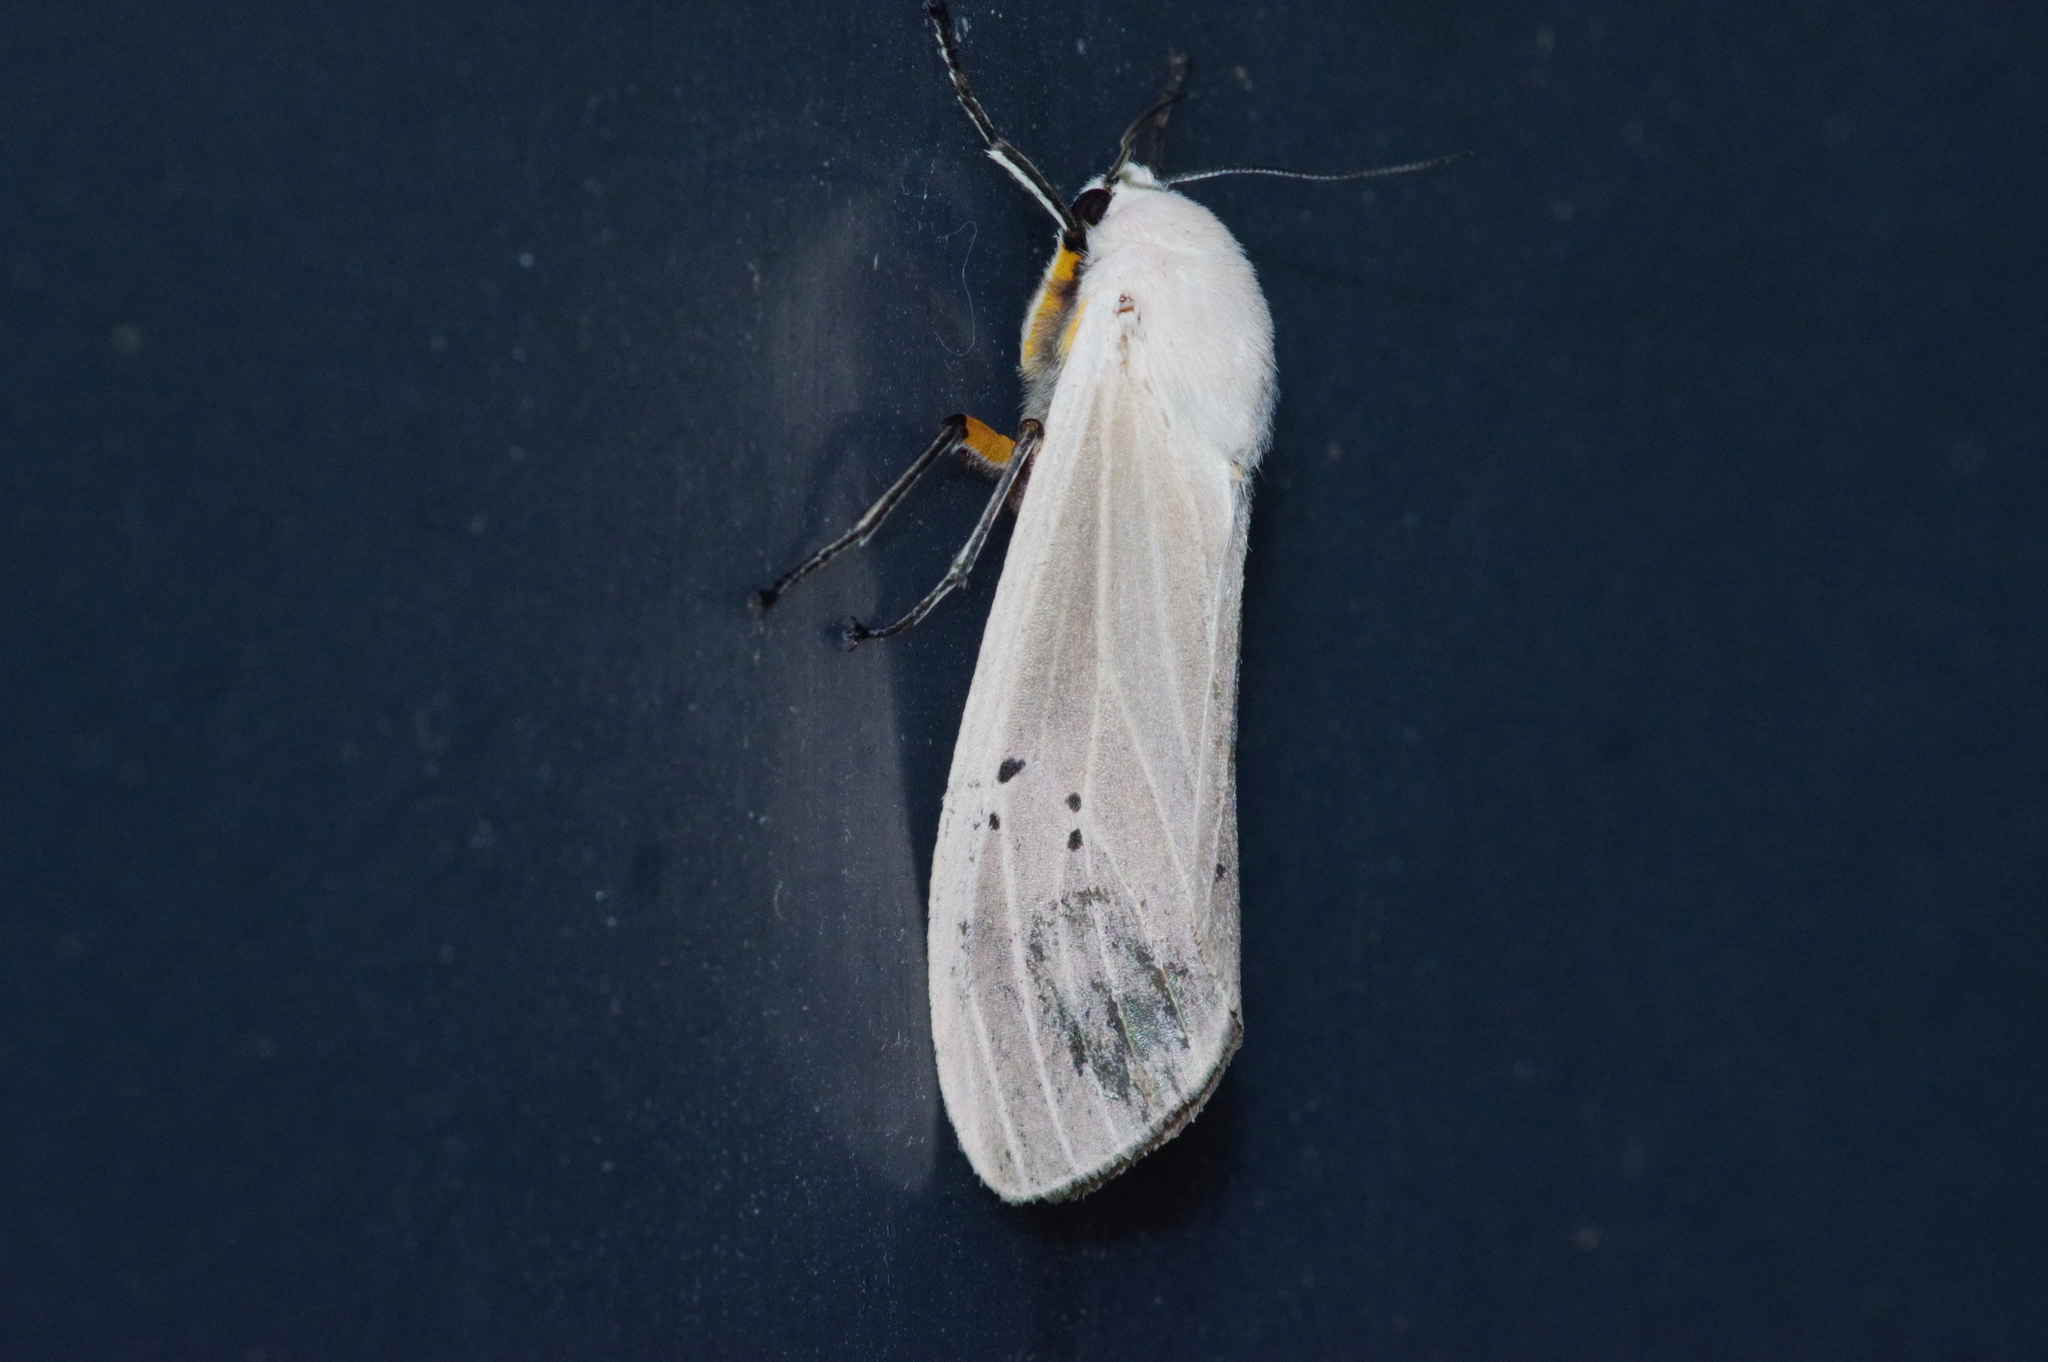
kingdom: Animalia
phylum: Arthropoda
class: Insecta
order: Lepidoptera
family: Erebidae
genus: Creatonotos
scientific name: Creatonotos transiens
